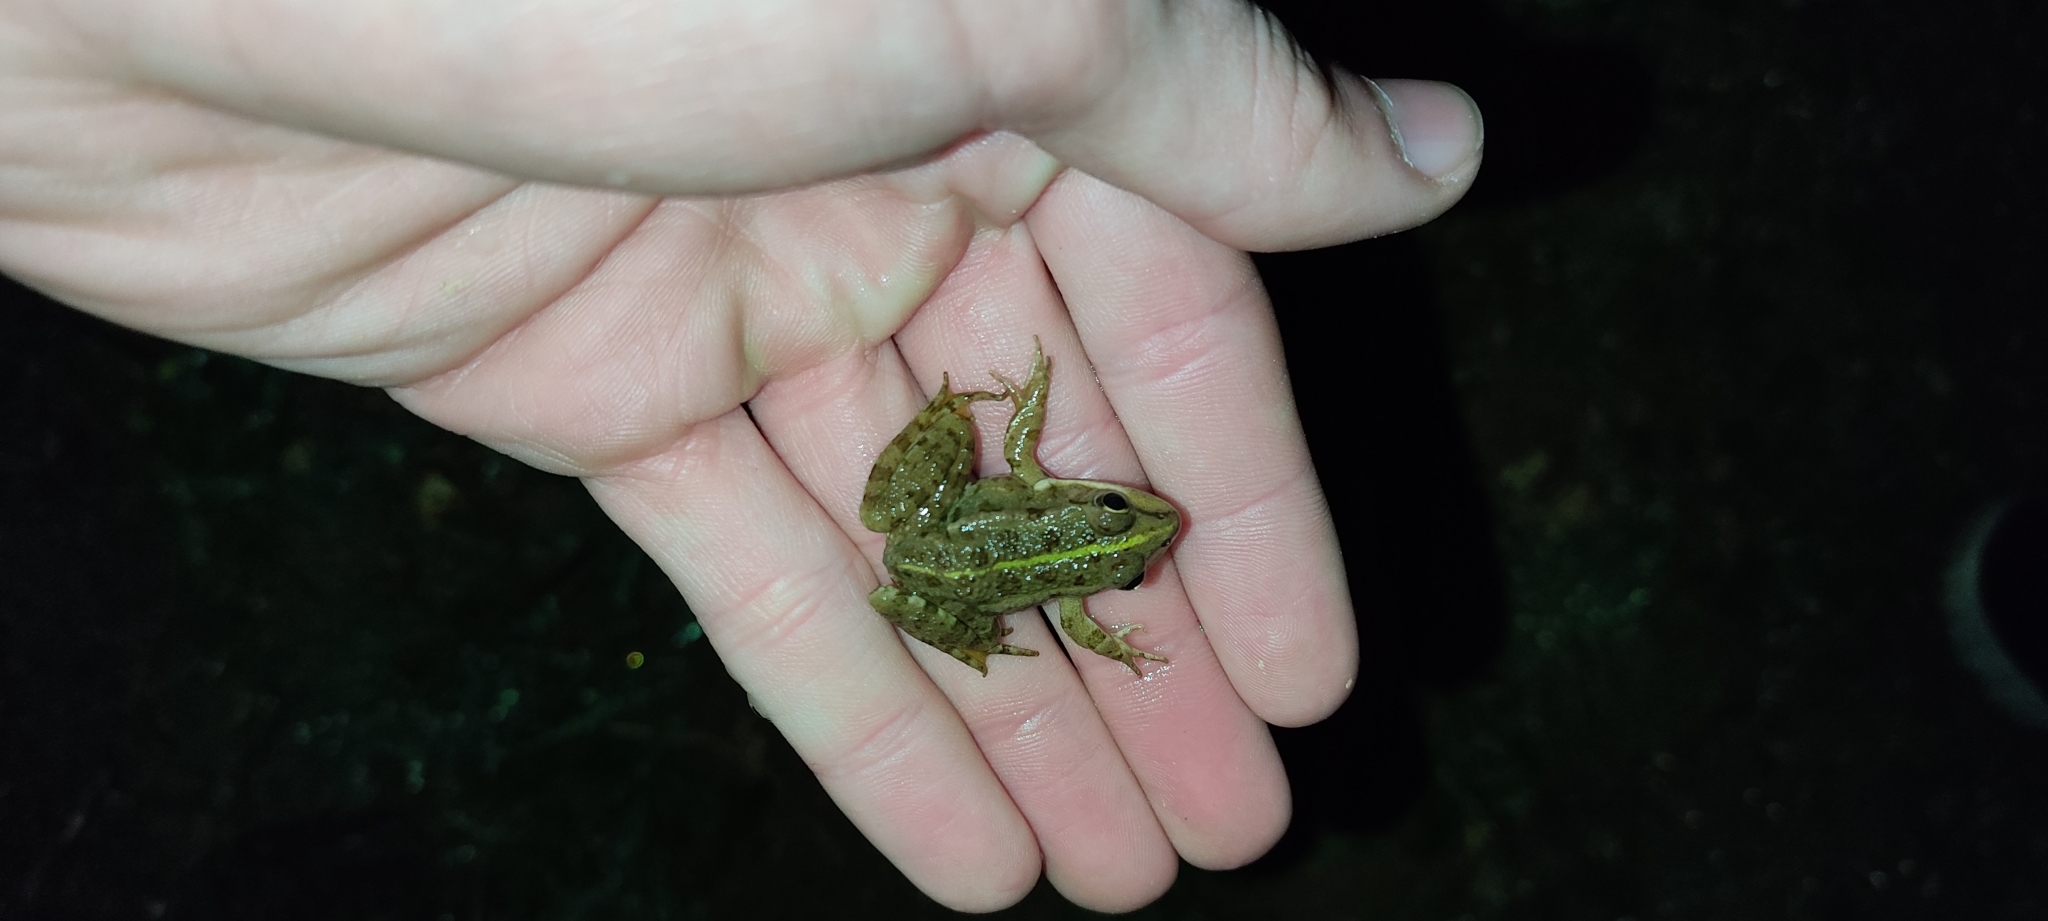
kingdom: Animalia
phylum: Chordata
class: Amphibia
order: Anura
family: Ranidae
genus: Pelophylax
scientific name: Pelophylax
